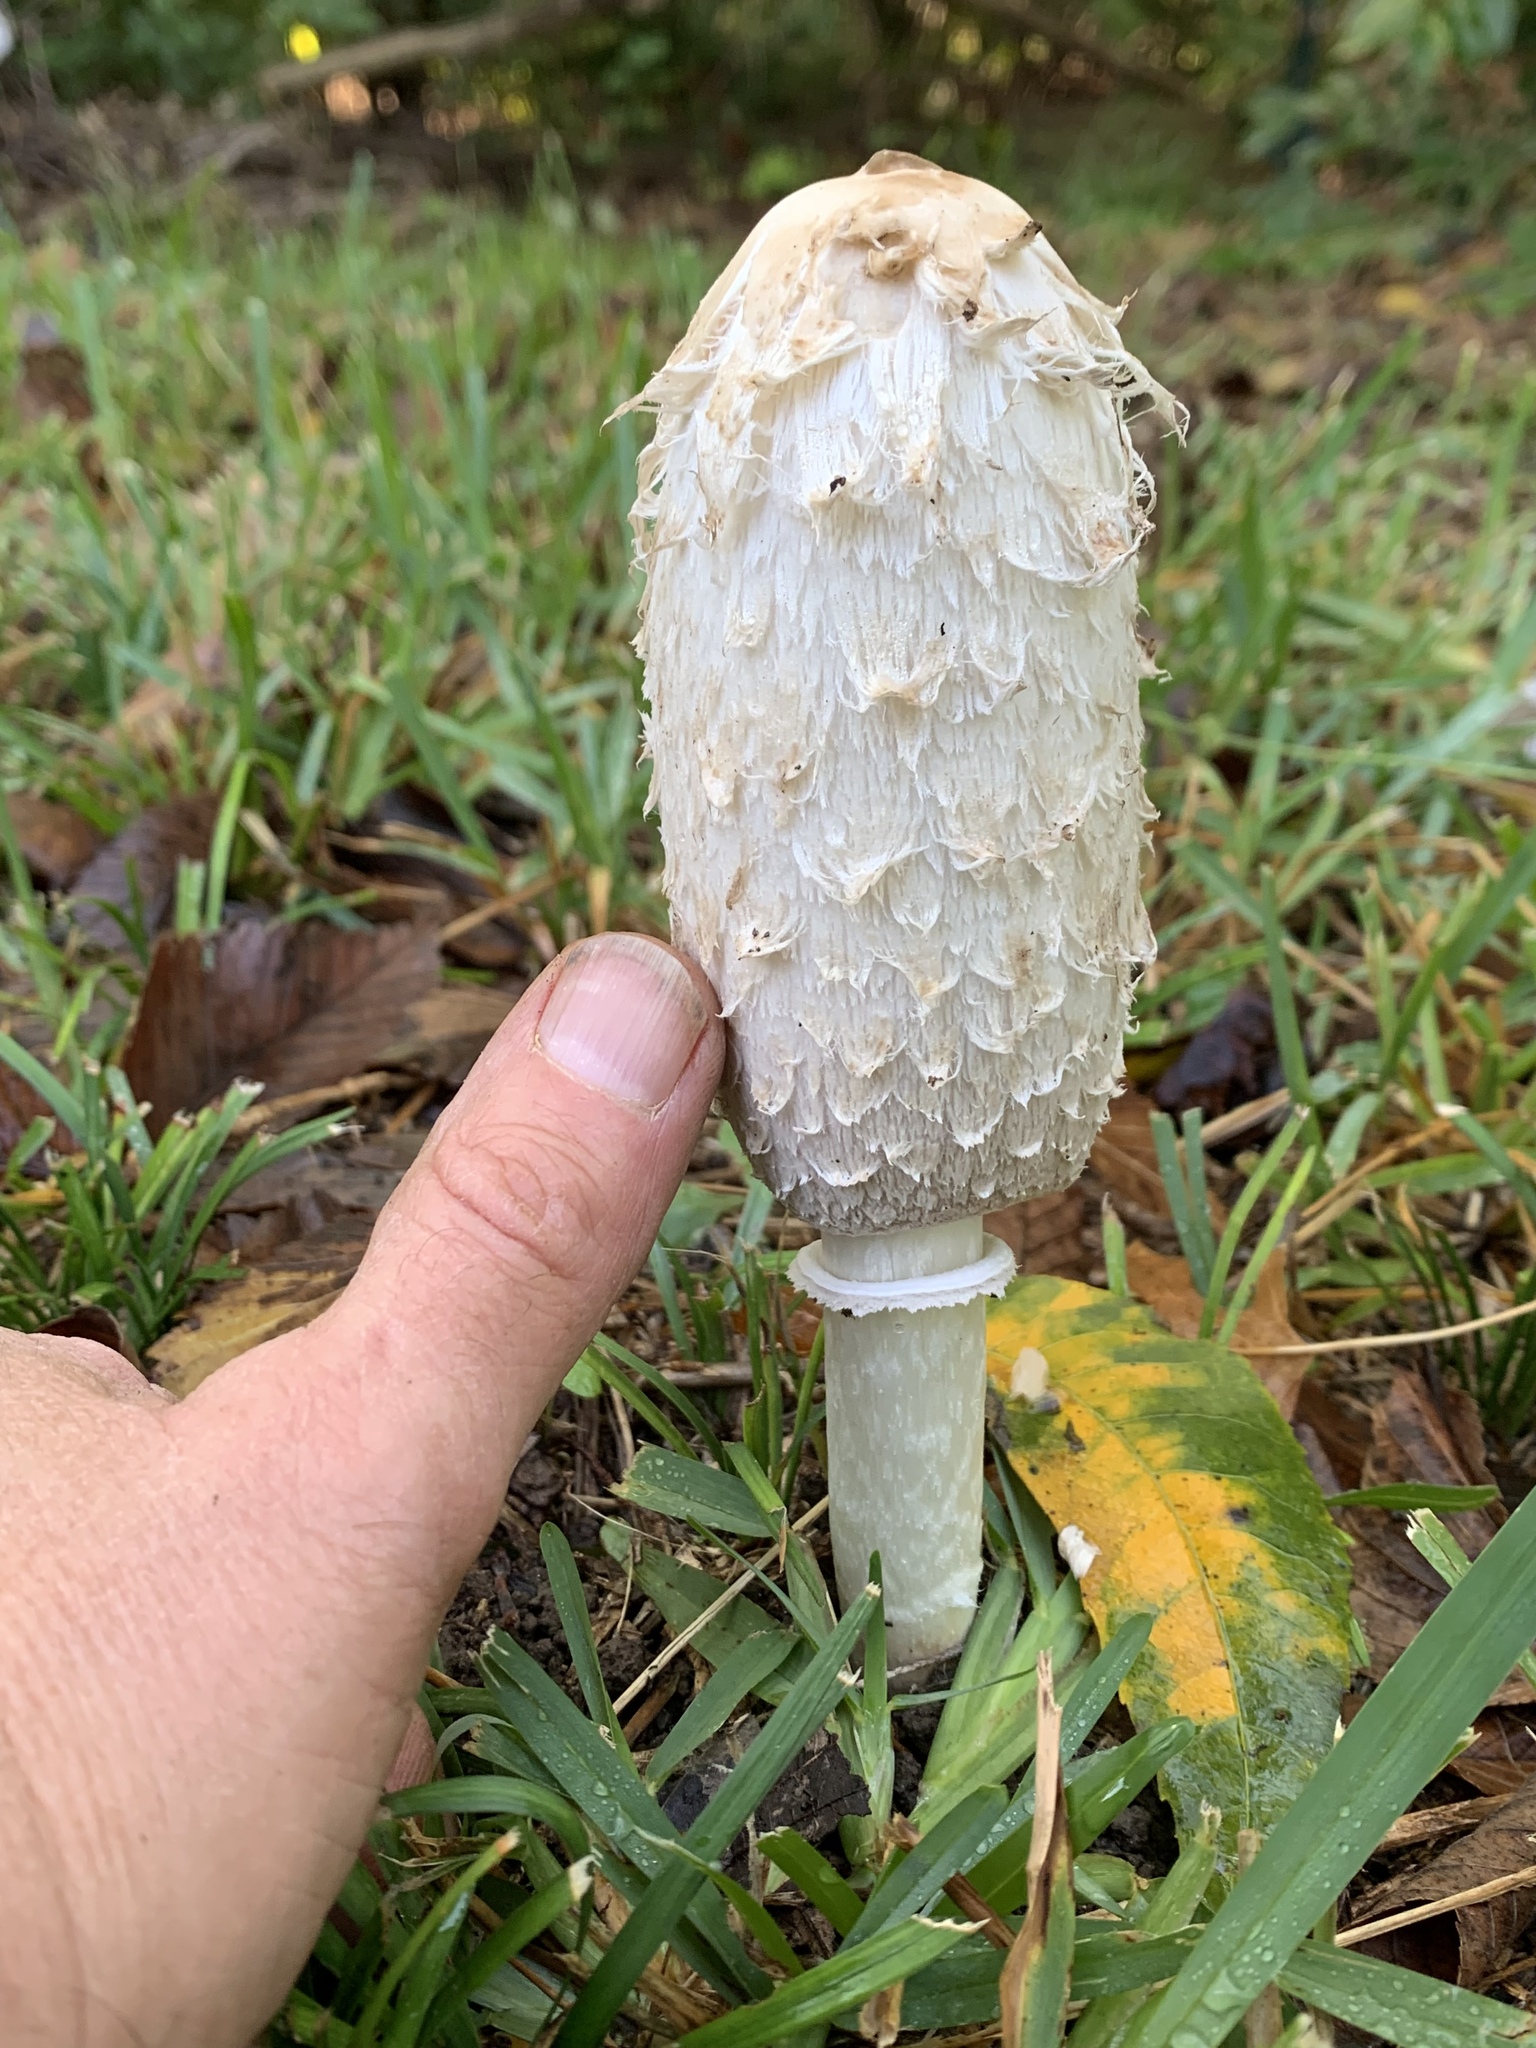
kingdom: Fungi
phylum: Basidiomycota
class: Agaricomycetes
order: Agaricales
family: Agaricaceae
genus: Coprinus
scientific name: Coprinus comatus
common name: Lawyer's wig
